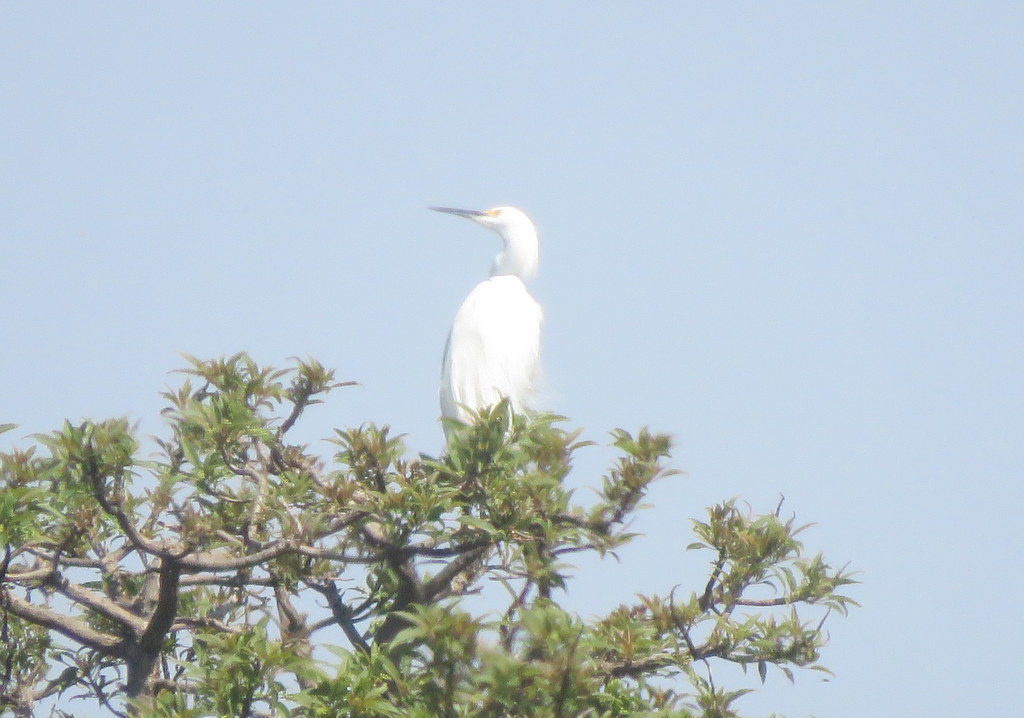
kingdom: Animalia
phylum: Chordata
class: Aves
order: Pelecaniformes
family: Ardeidae
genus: Egretta
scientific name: Egretta thula
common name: Snowy egret
